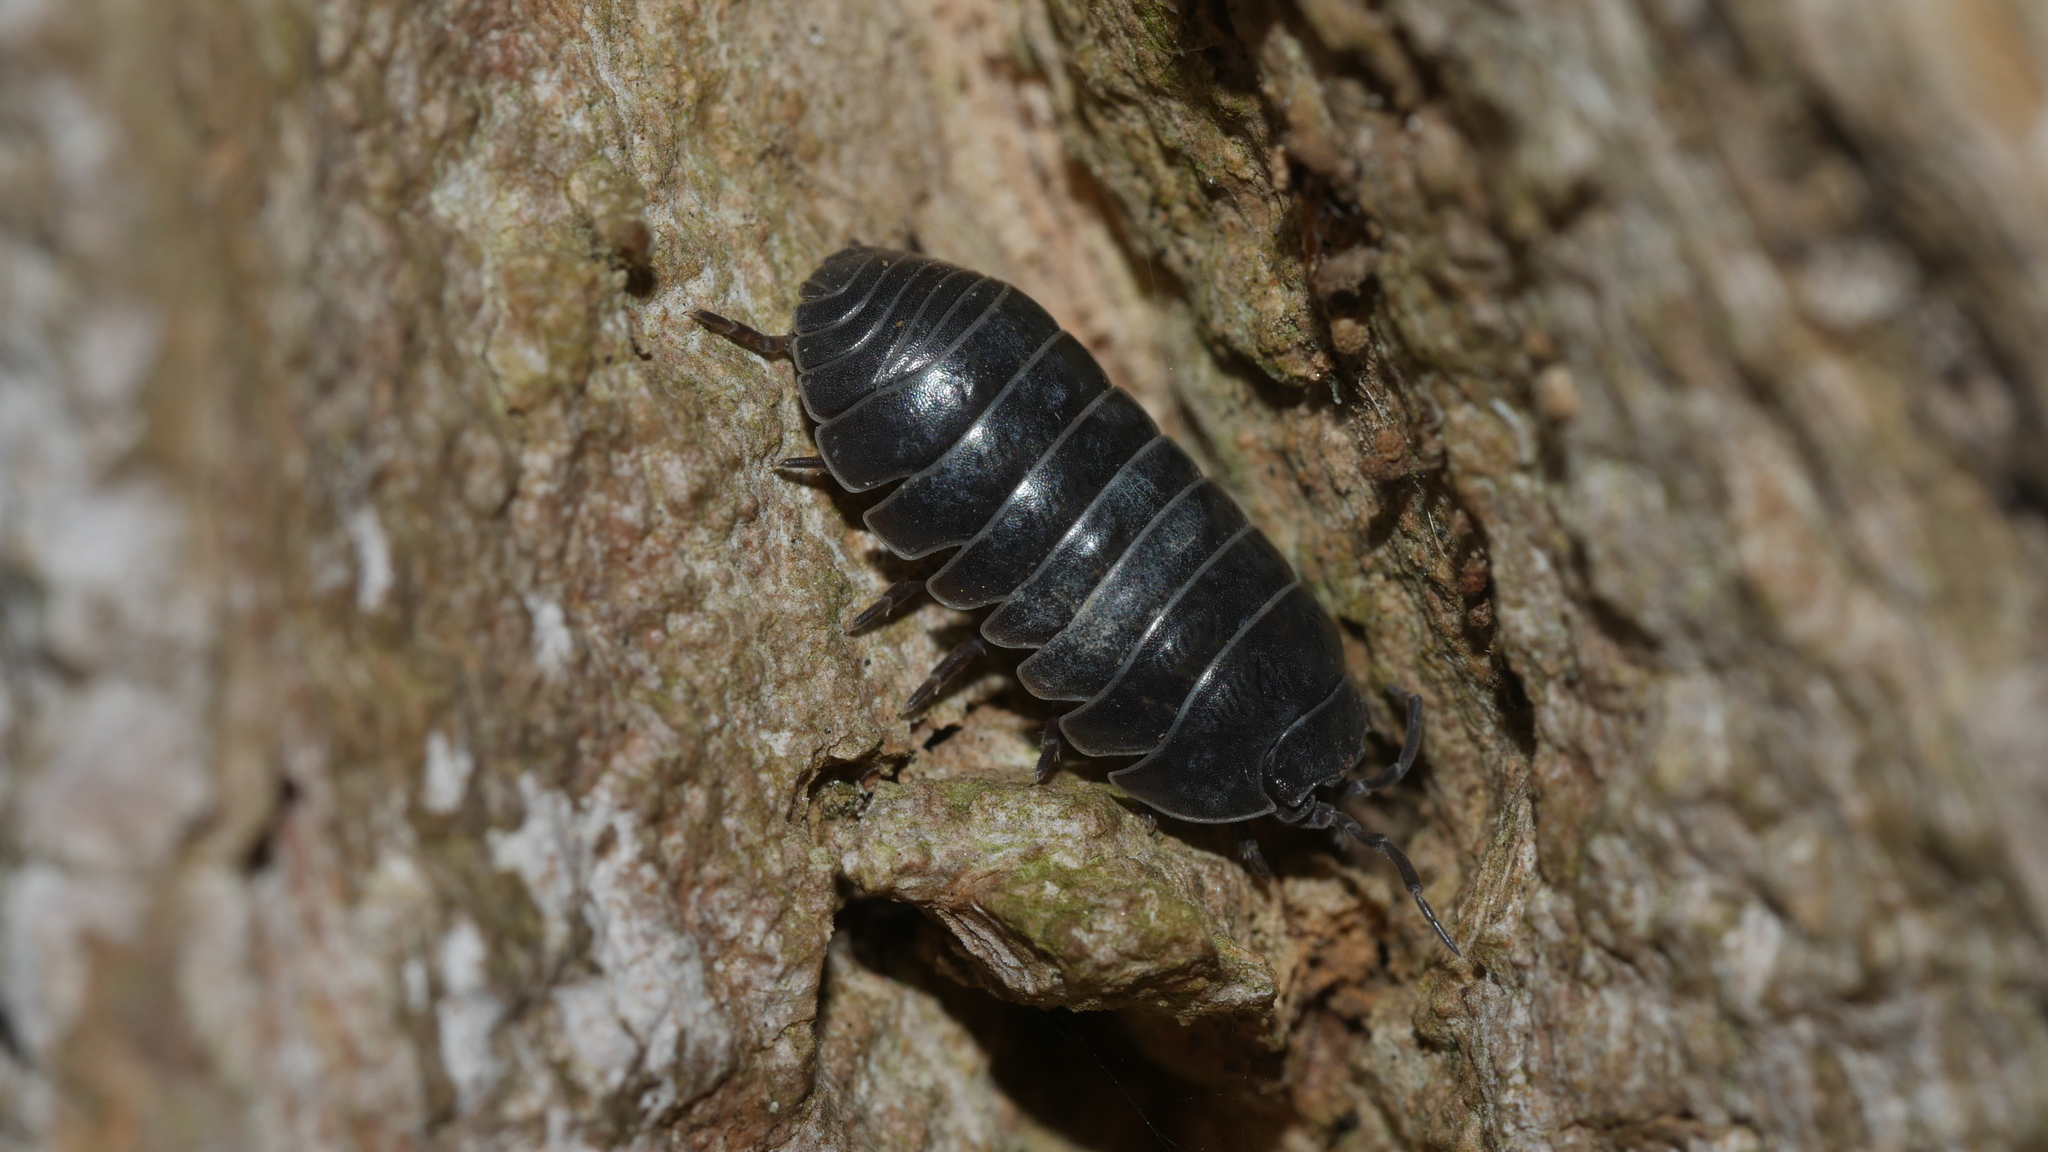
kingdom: Animalia
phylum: Arthropoda
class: Malacostraca
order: Isopoda
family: Armadillidiidae
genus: Armadillidium
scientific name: Armadillidium vulgare
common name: Common pill woodlouse
